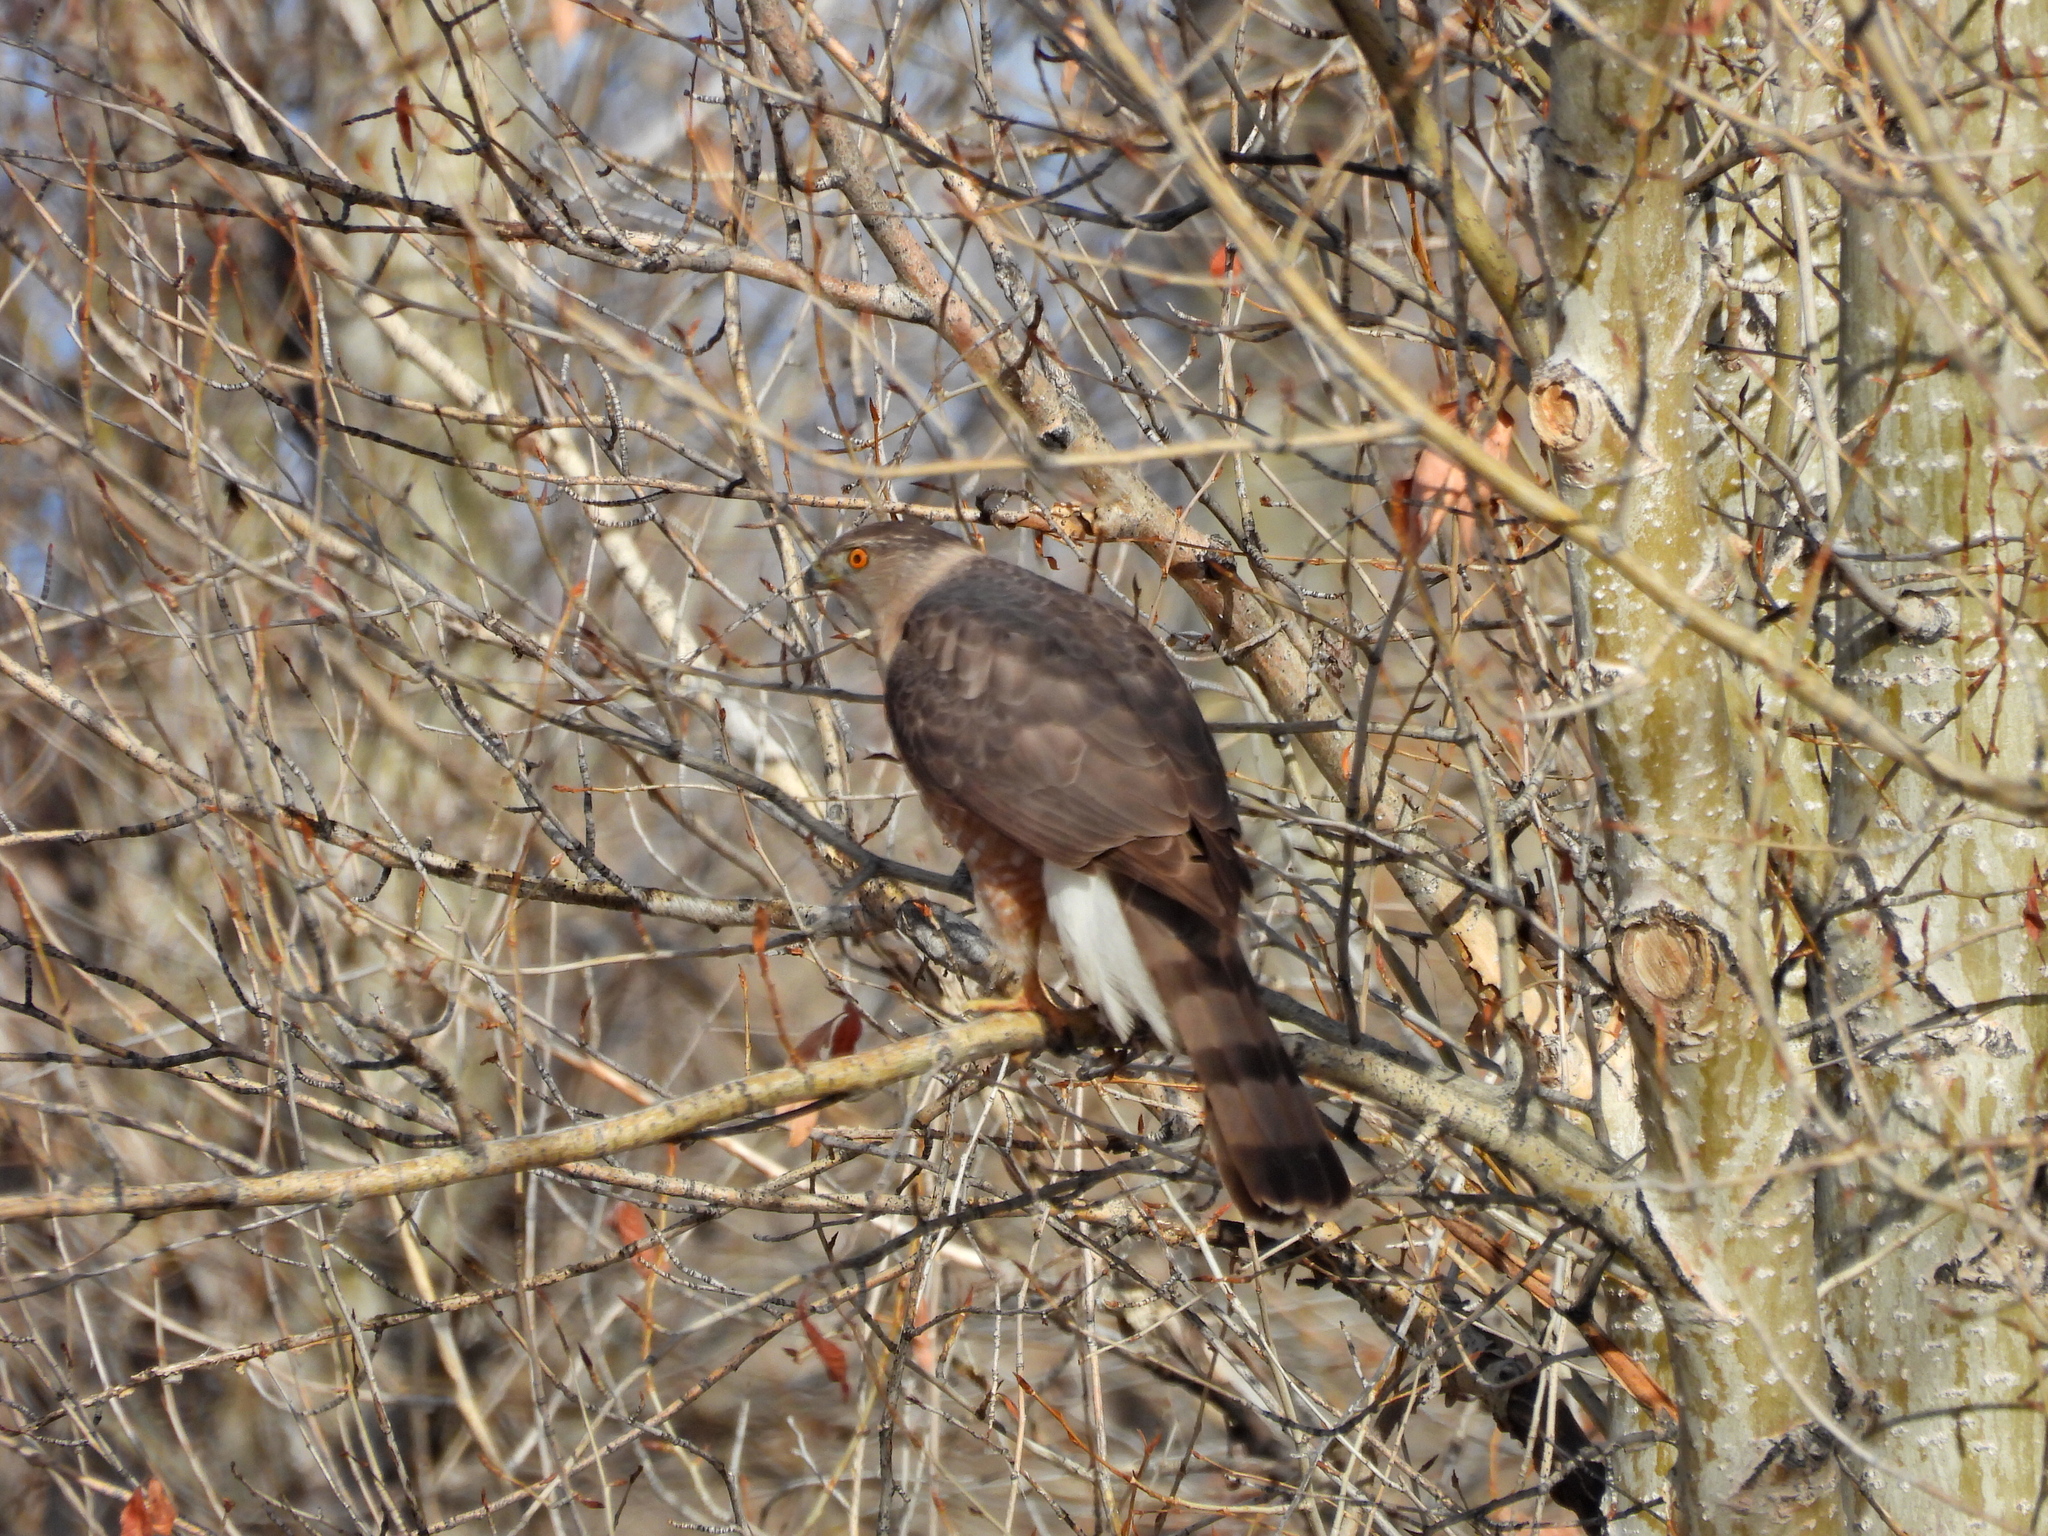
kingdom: Animalia
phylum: Chordata
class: Aves
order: Accipitriformes
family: Accipitridae
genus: Accipiter
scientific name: Accipiter cooperii
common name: Cooper's hawk
